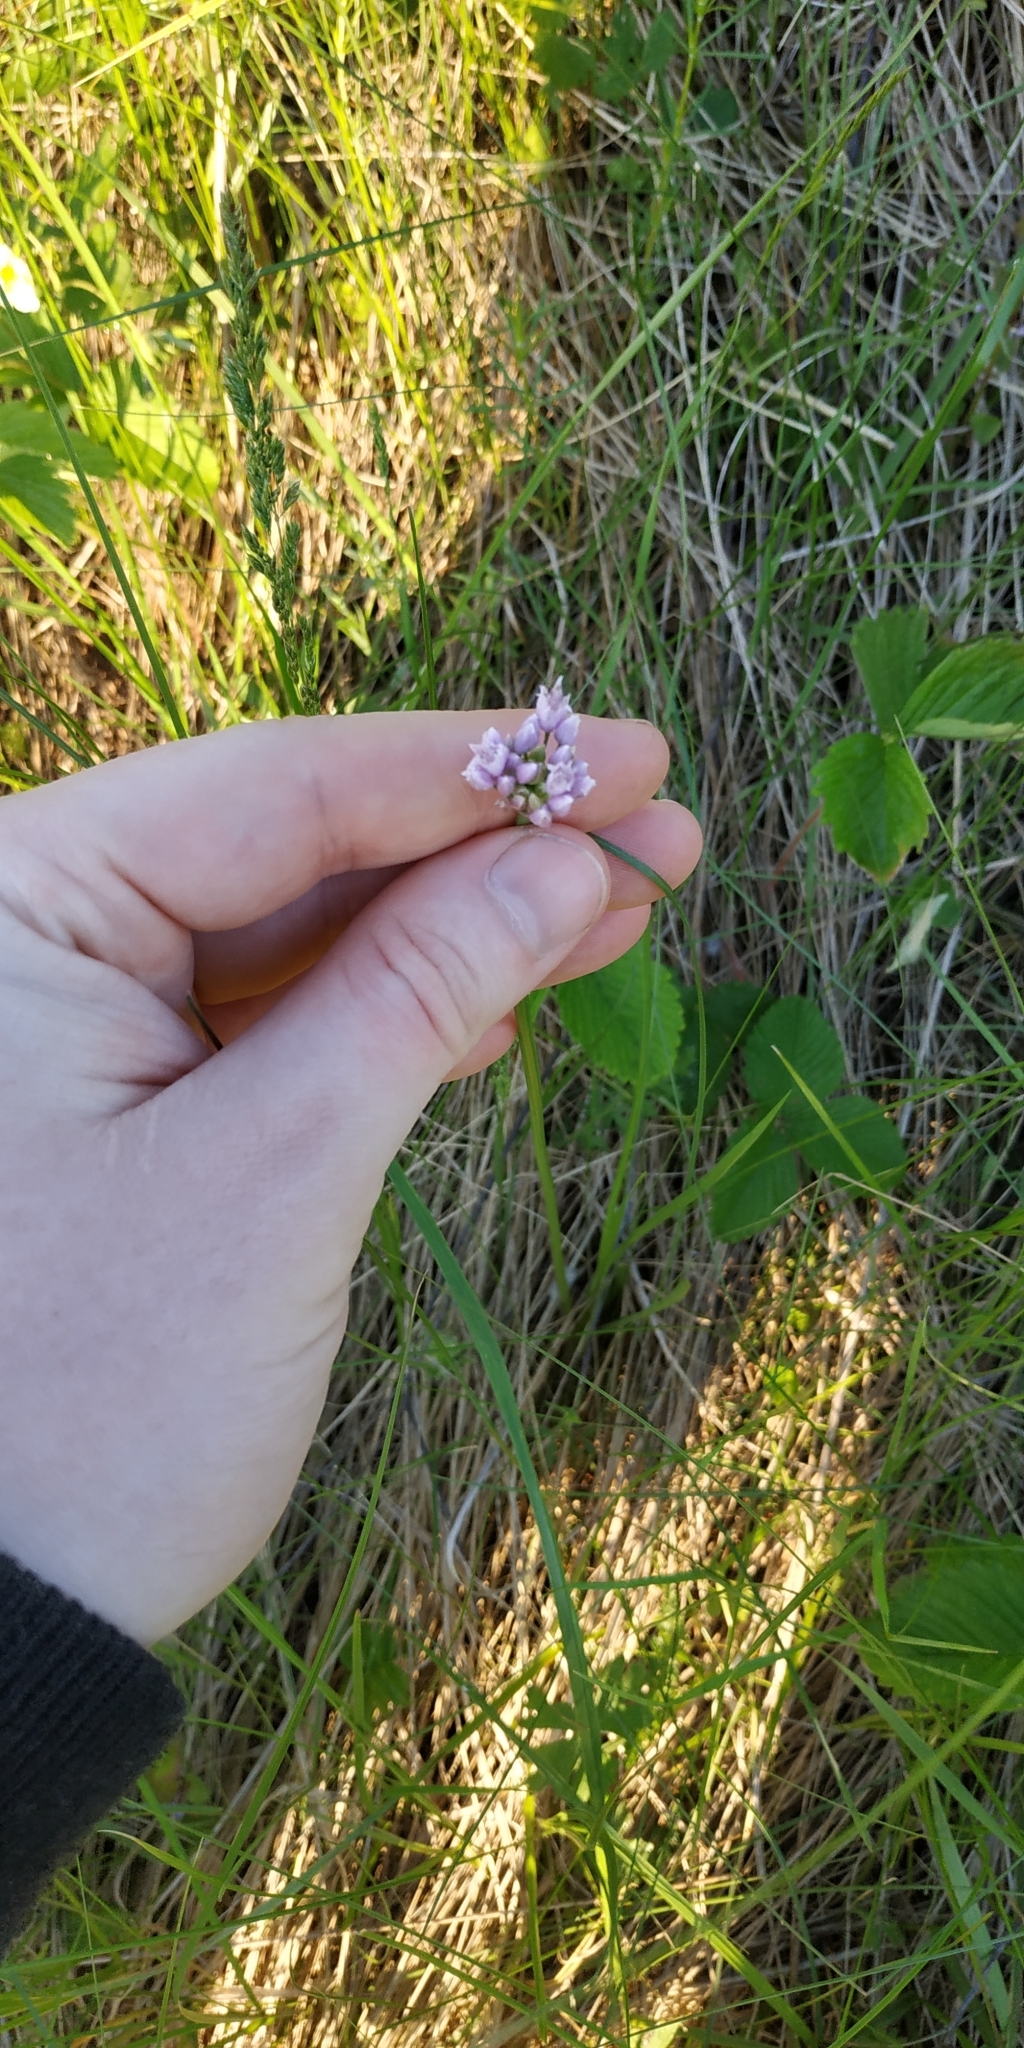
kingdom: Plantae
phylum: Tracheophyta
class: Liliopsida
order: Asparagales
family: Amaryllidaceae
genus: Allium
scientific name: Allium angulosum
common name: Mouse garlic
